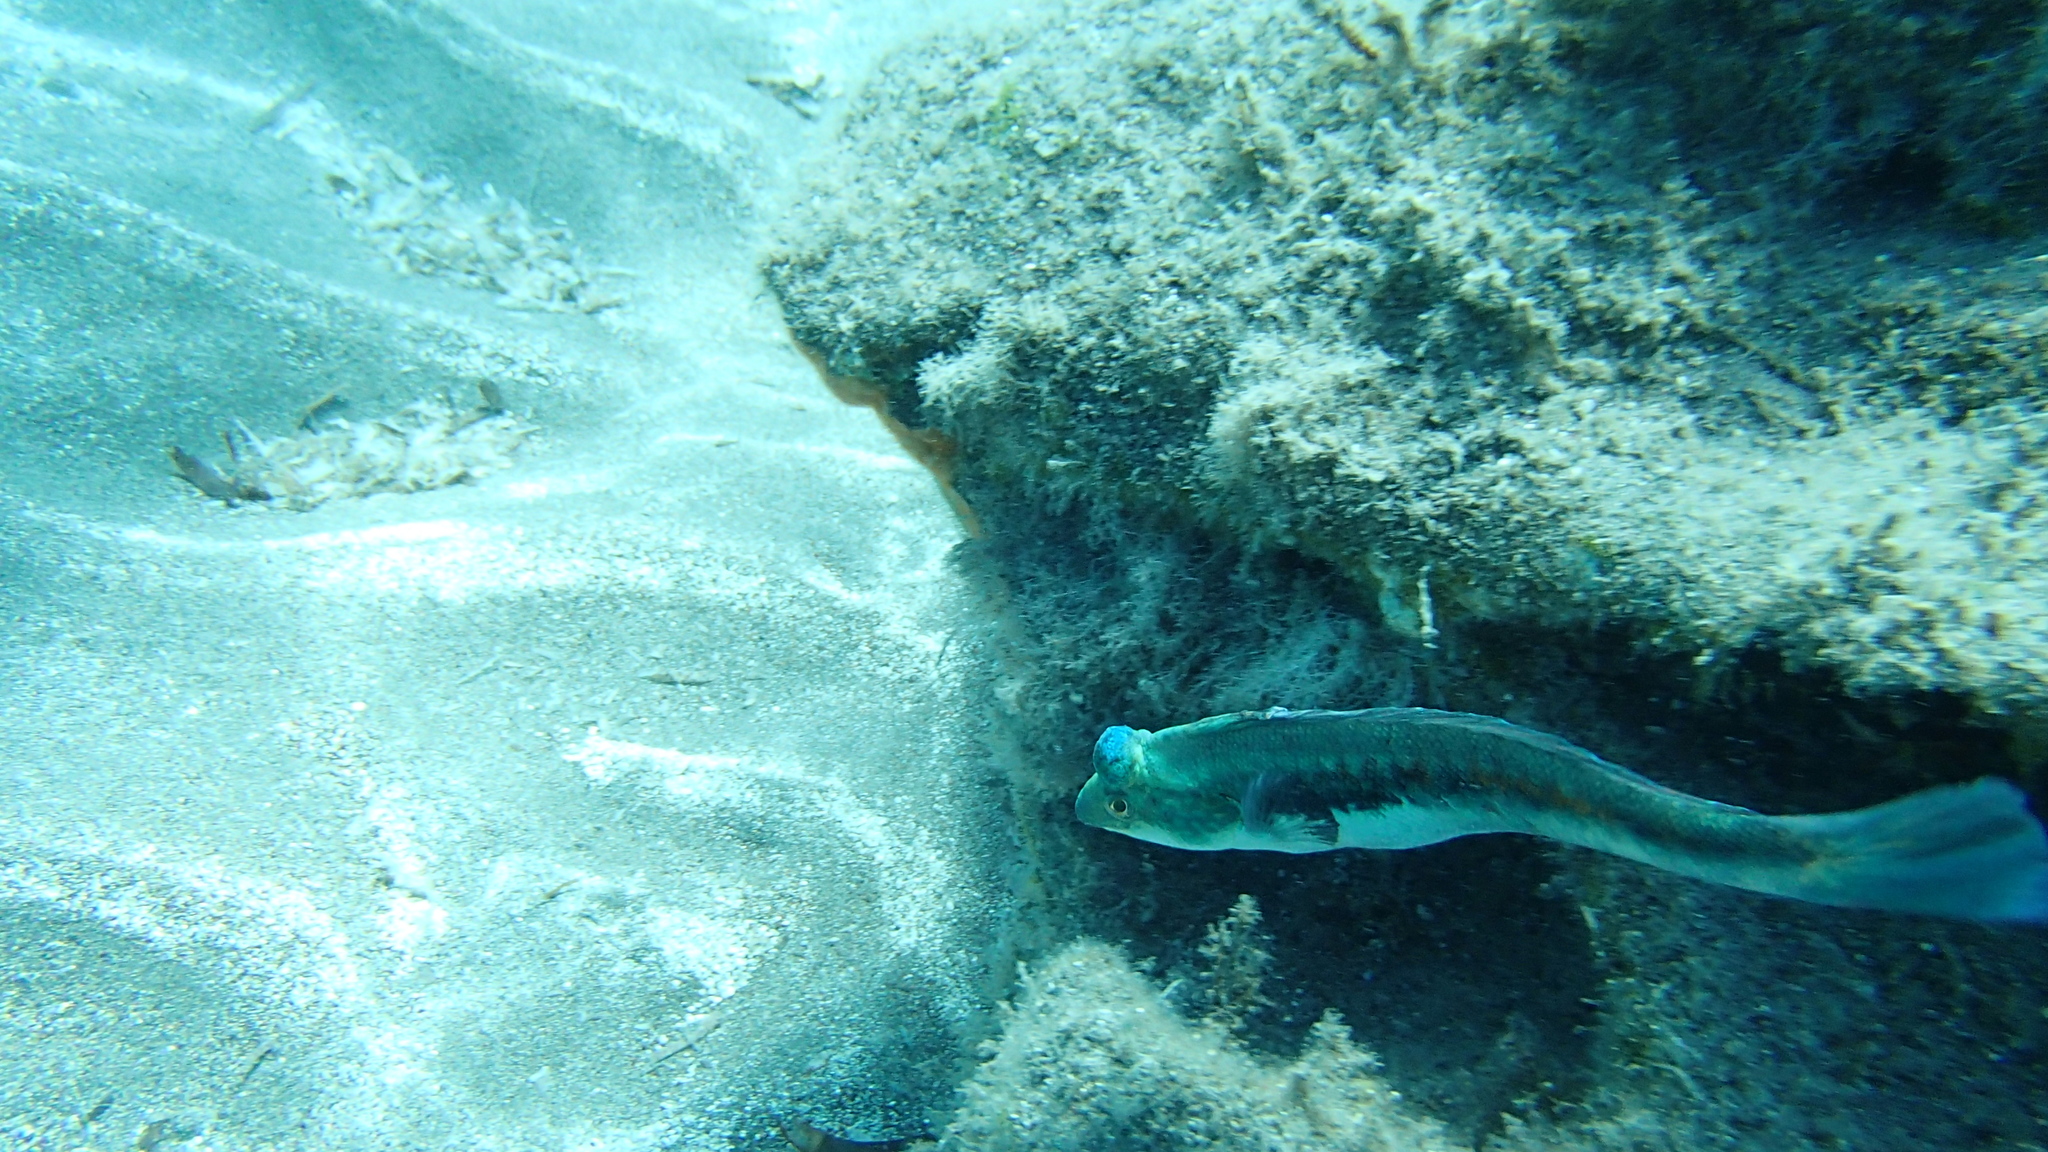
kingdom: Animalia
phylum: Chordata
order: Perciformes
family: Labridae
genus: Coris
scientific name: Coris julis
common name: Rainbow wrasse
